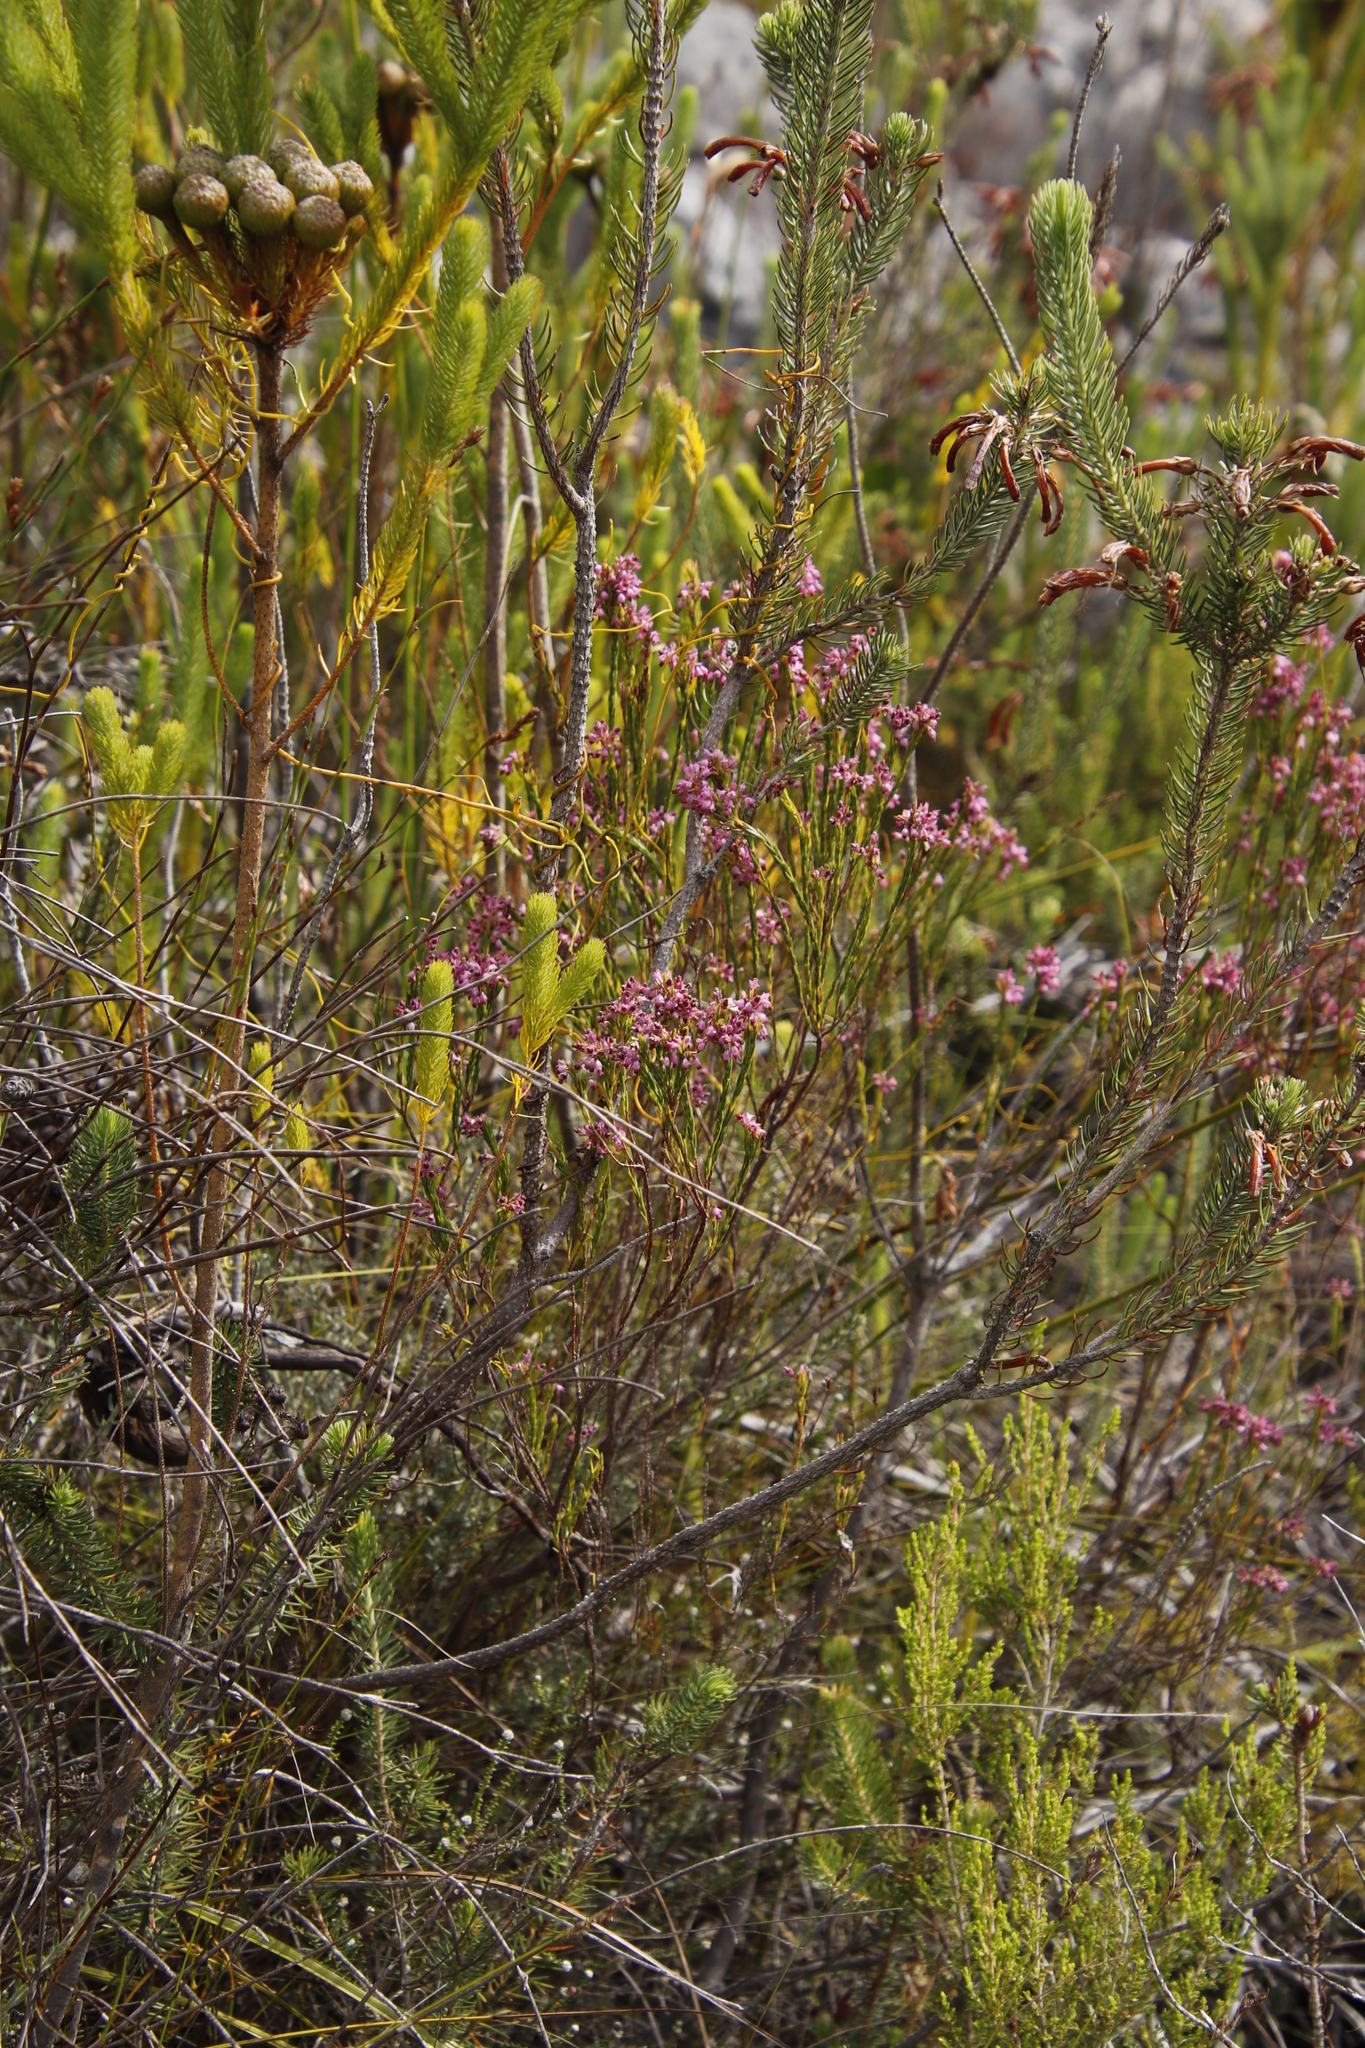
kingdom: Plantae
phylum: Tracheophyta
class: Magnoliopsida
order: Ericales
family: Ericaceae
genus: Erica
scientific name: Erica corifolia
